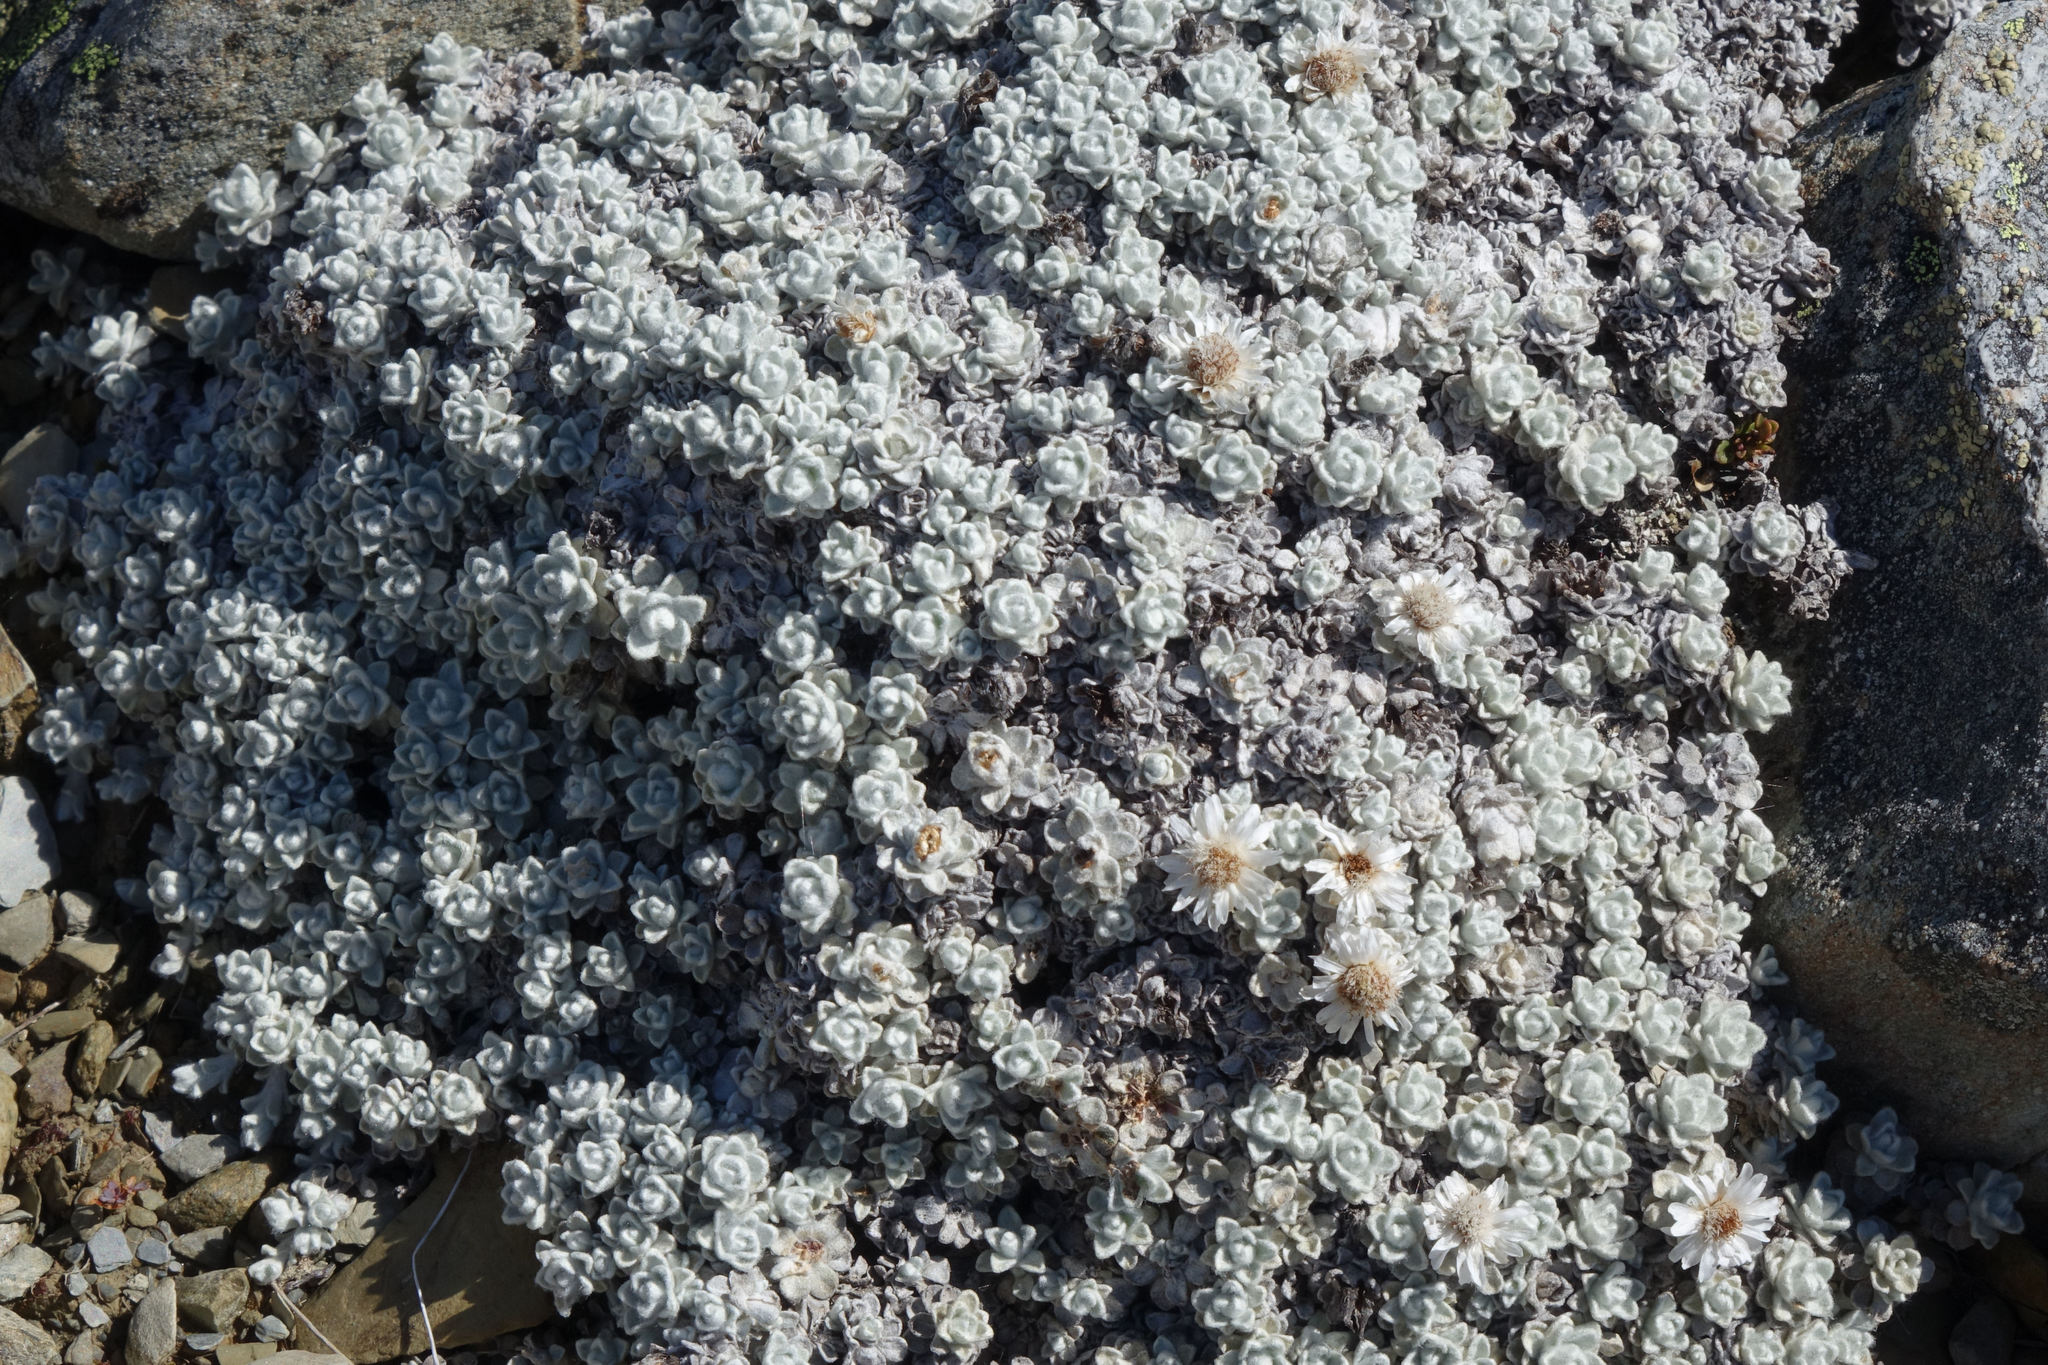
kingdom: Plantae
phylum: Tracheophyta
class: Magnoliopsida
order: Asterales
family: Asteraceae
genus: Raoulia
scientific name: Raoulia youngii
